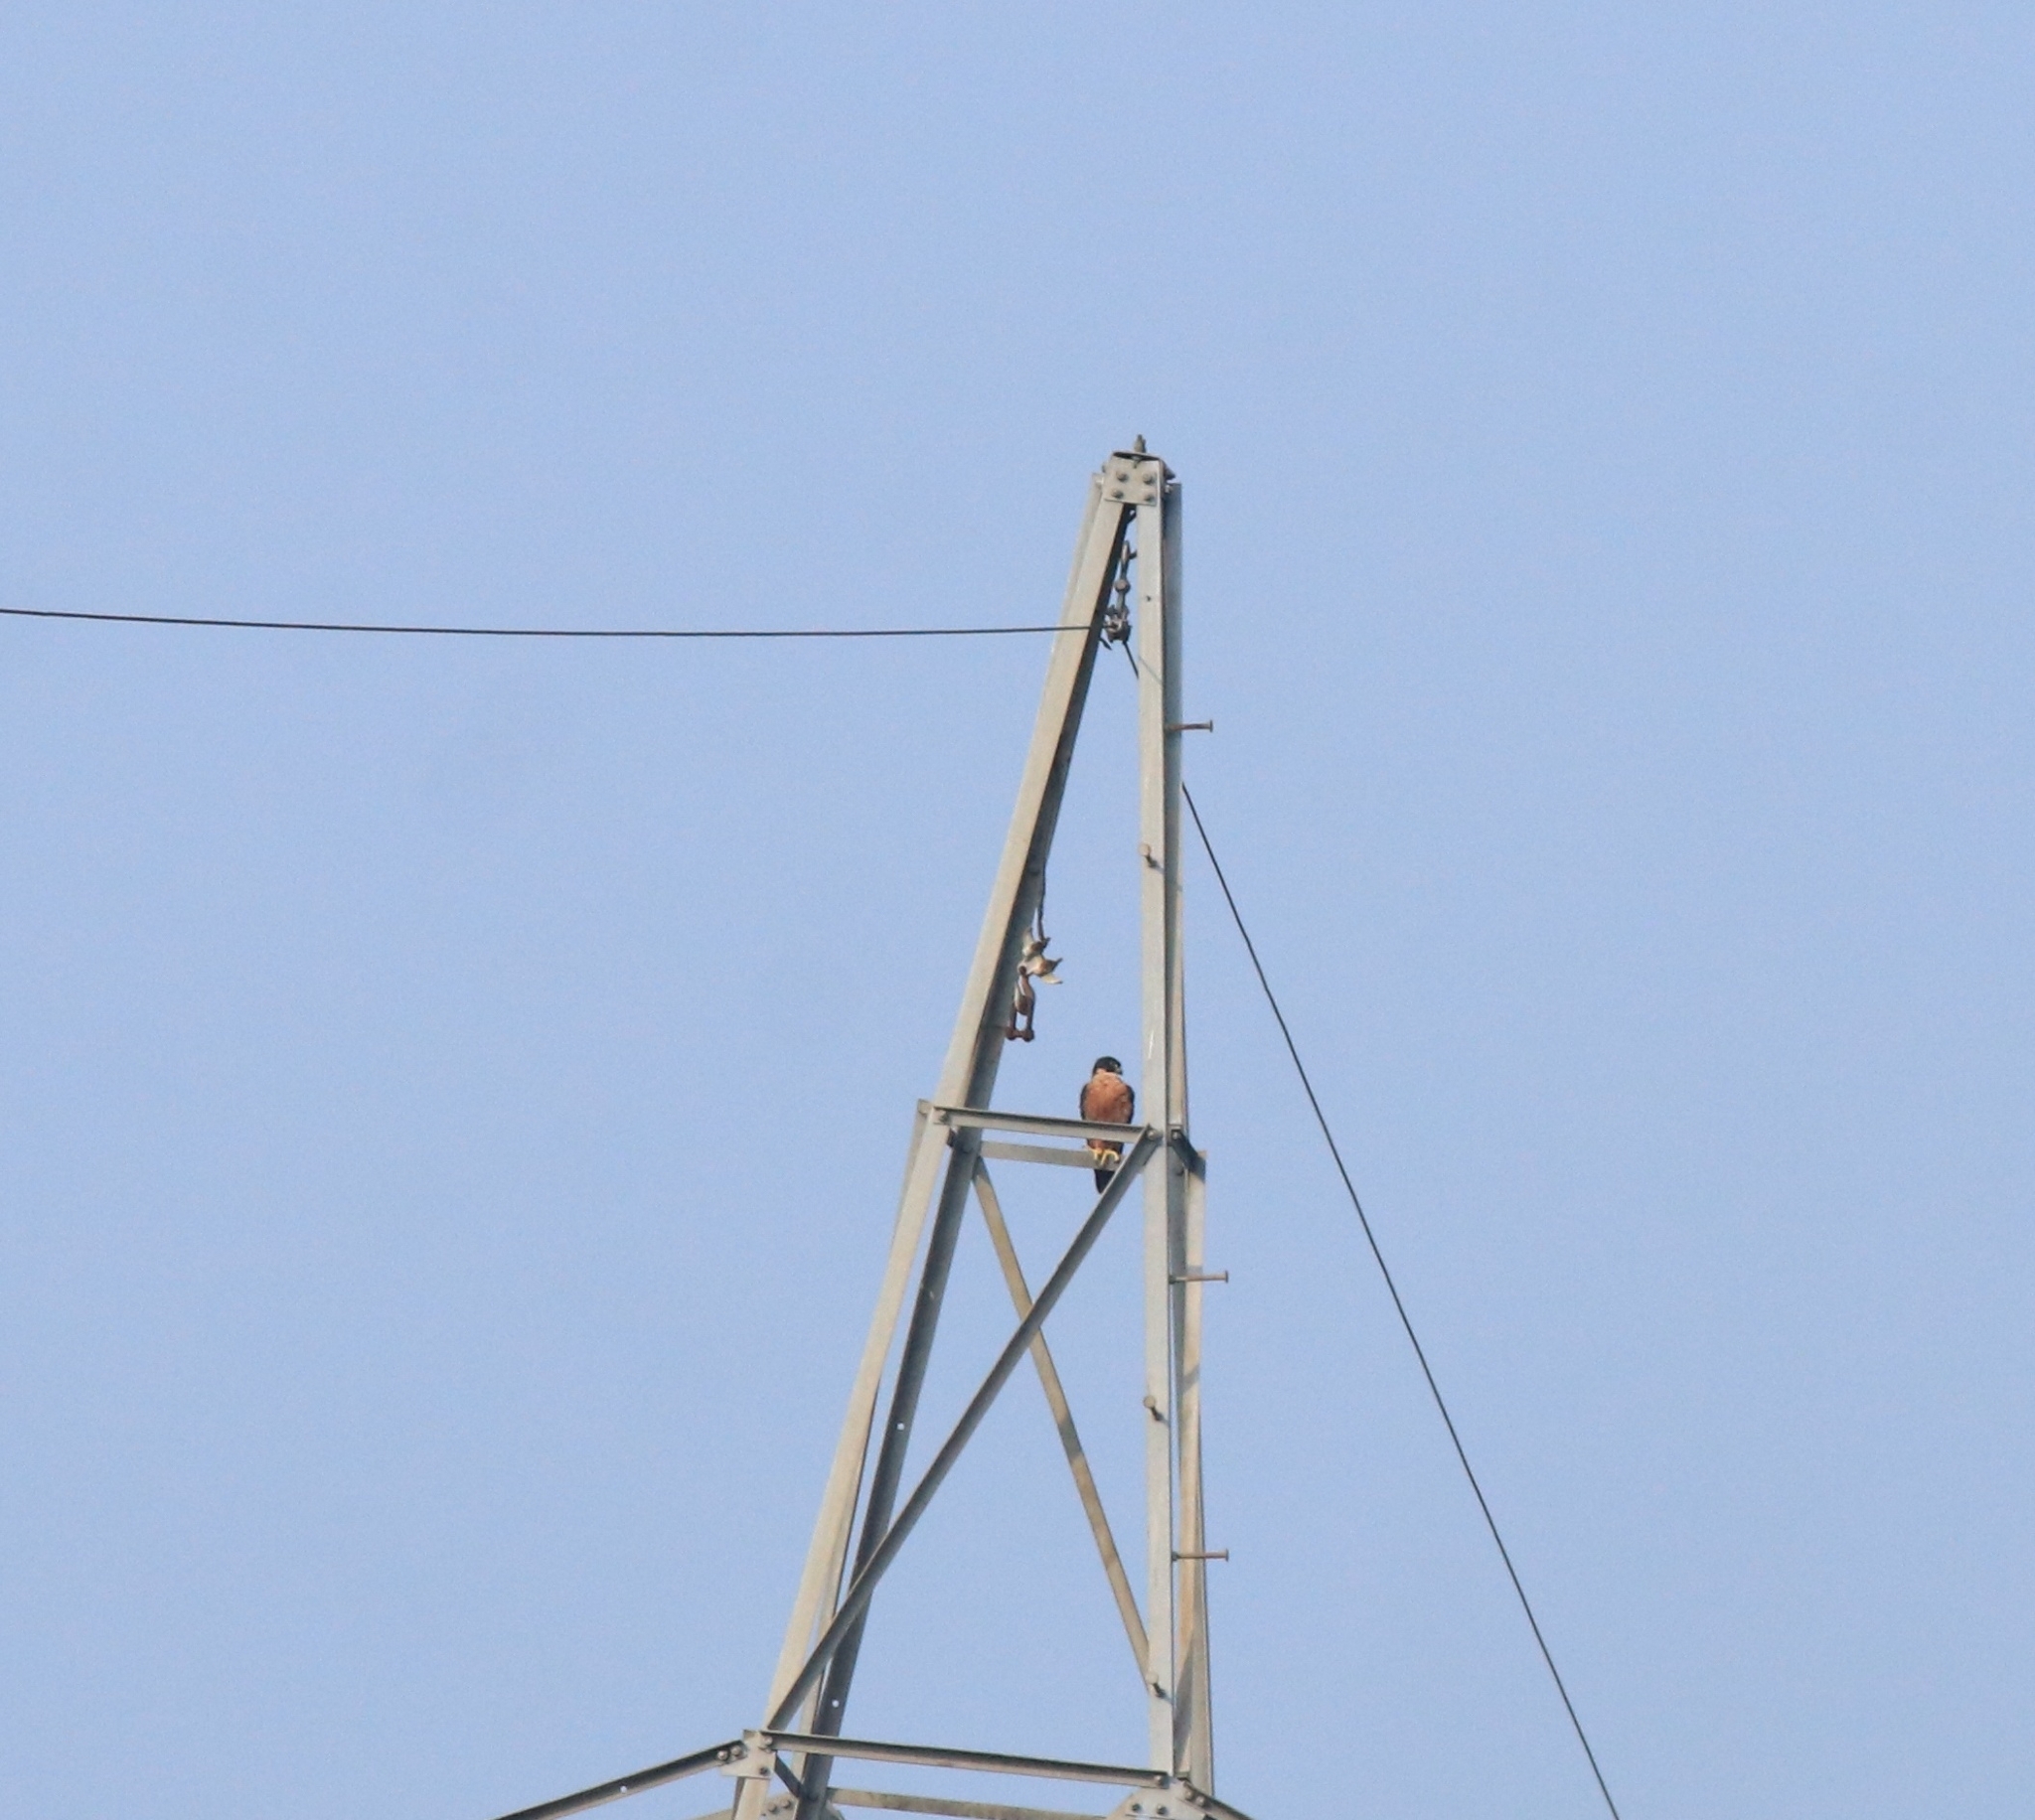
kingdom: Animalia
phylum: Chordata
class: Aves
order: Falconiformes
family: Falconidae
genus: Falco
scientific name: Falco peregrinus
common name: Peregrine falcon
